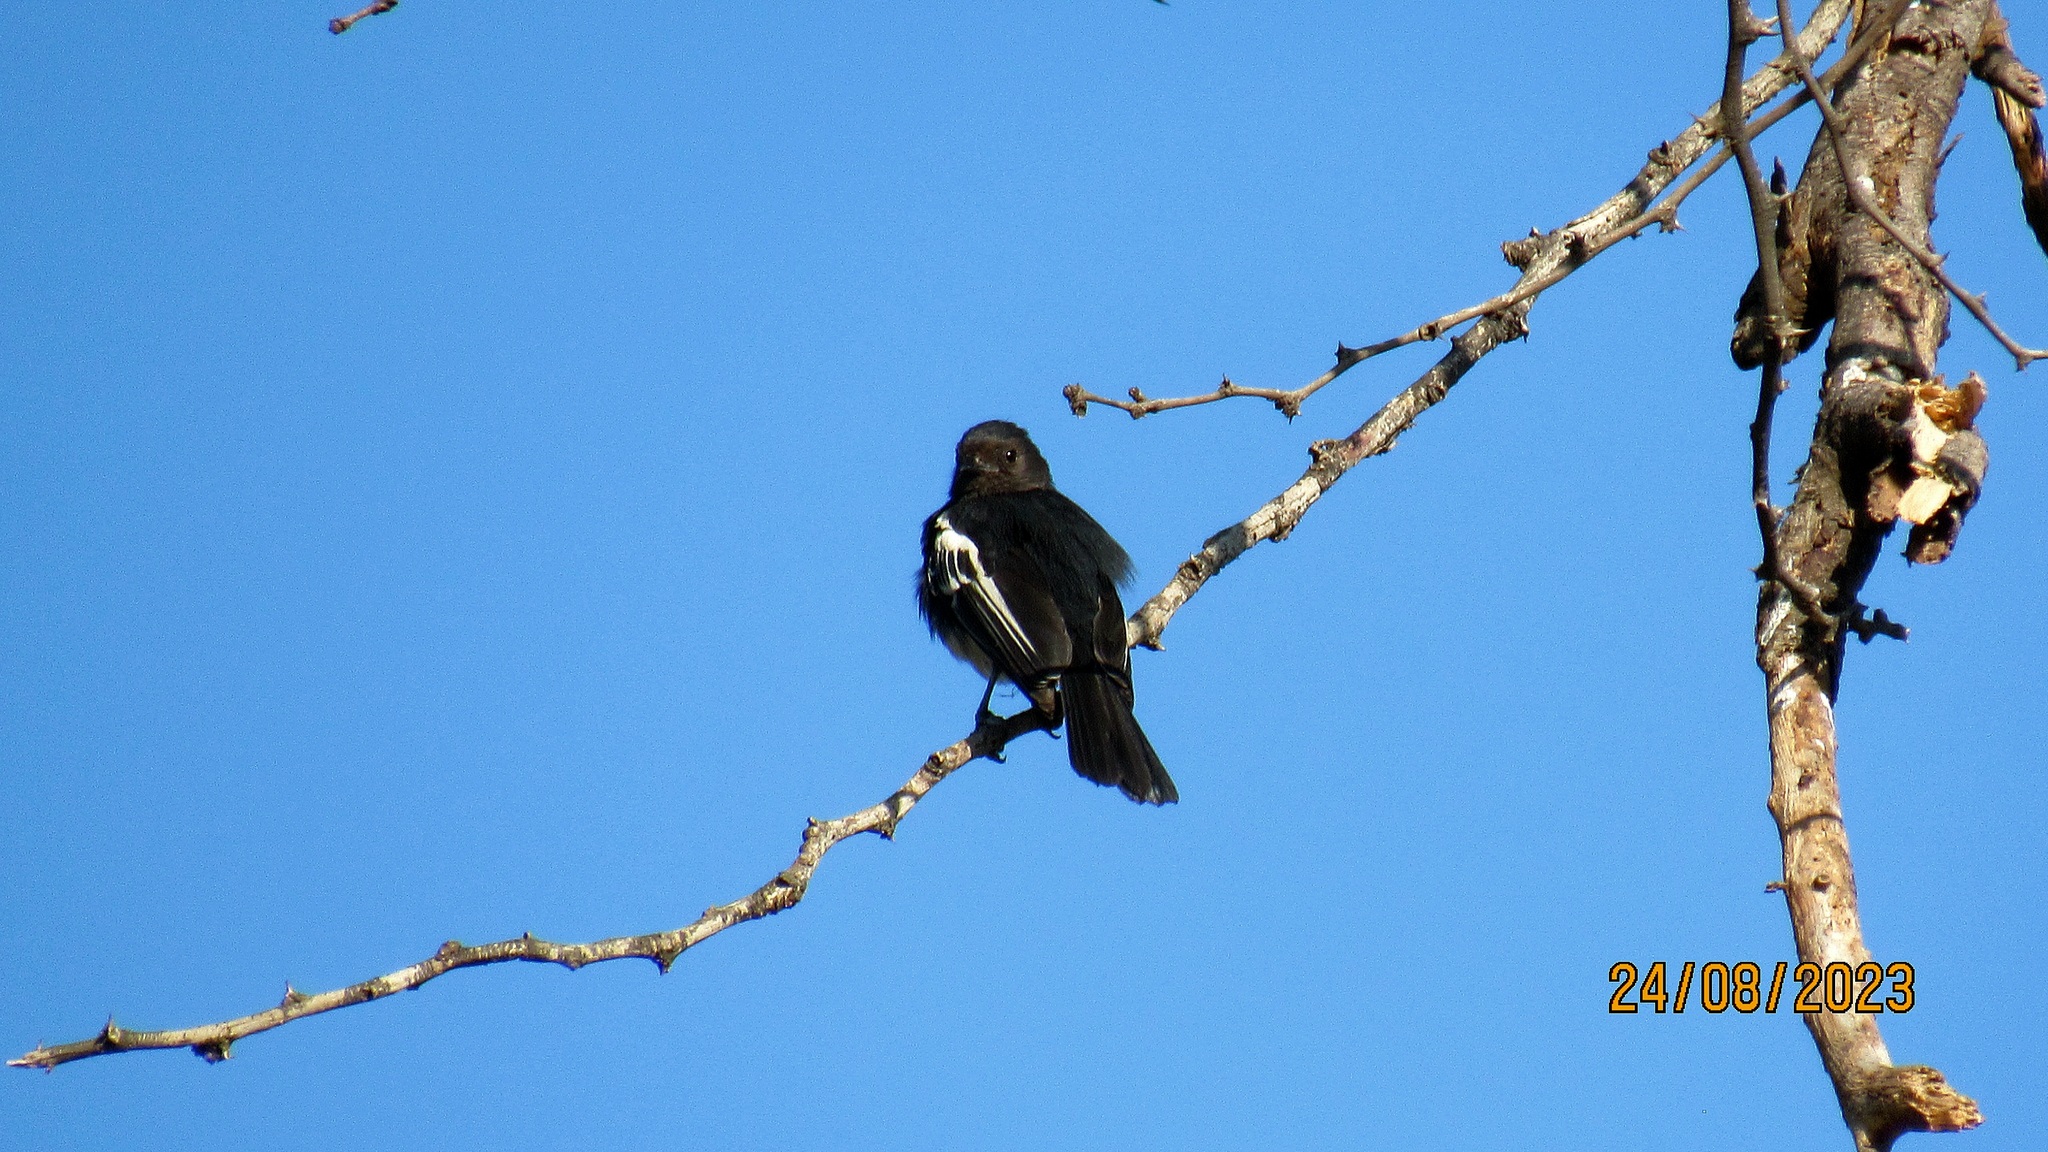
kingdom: Animalia
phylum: Chordata
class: Aves
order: Passeriformes
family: Paridae
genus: Parus
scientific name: Parus albiventris
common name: White-bellied tit
